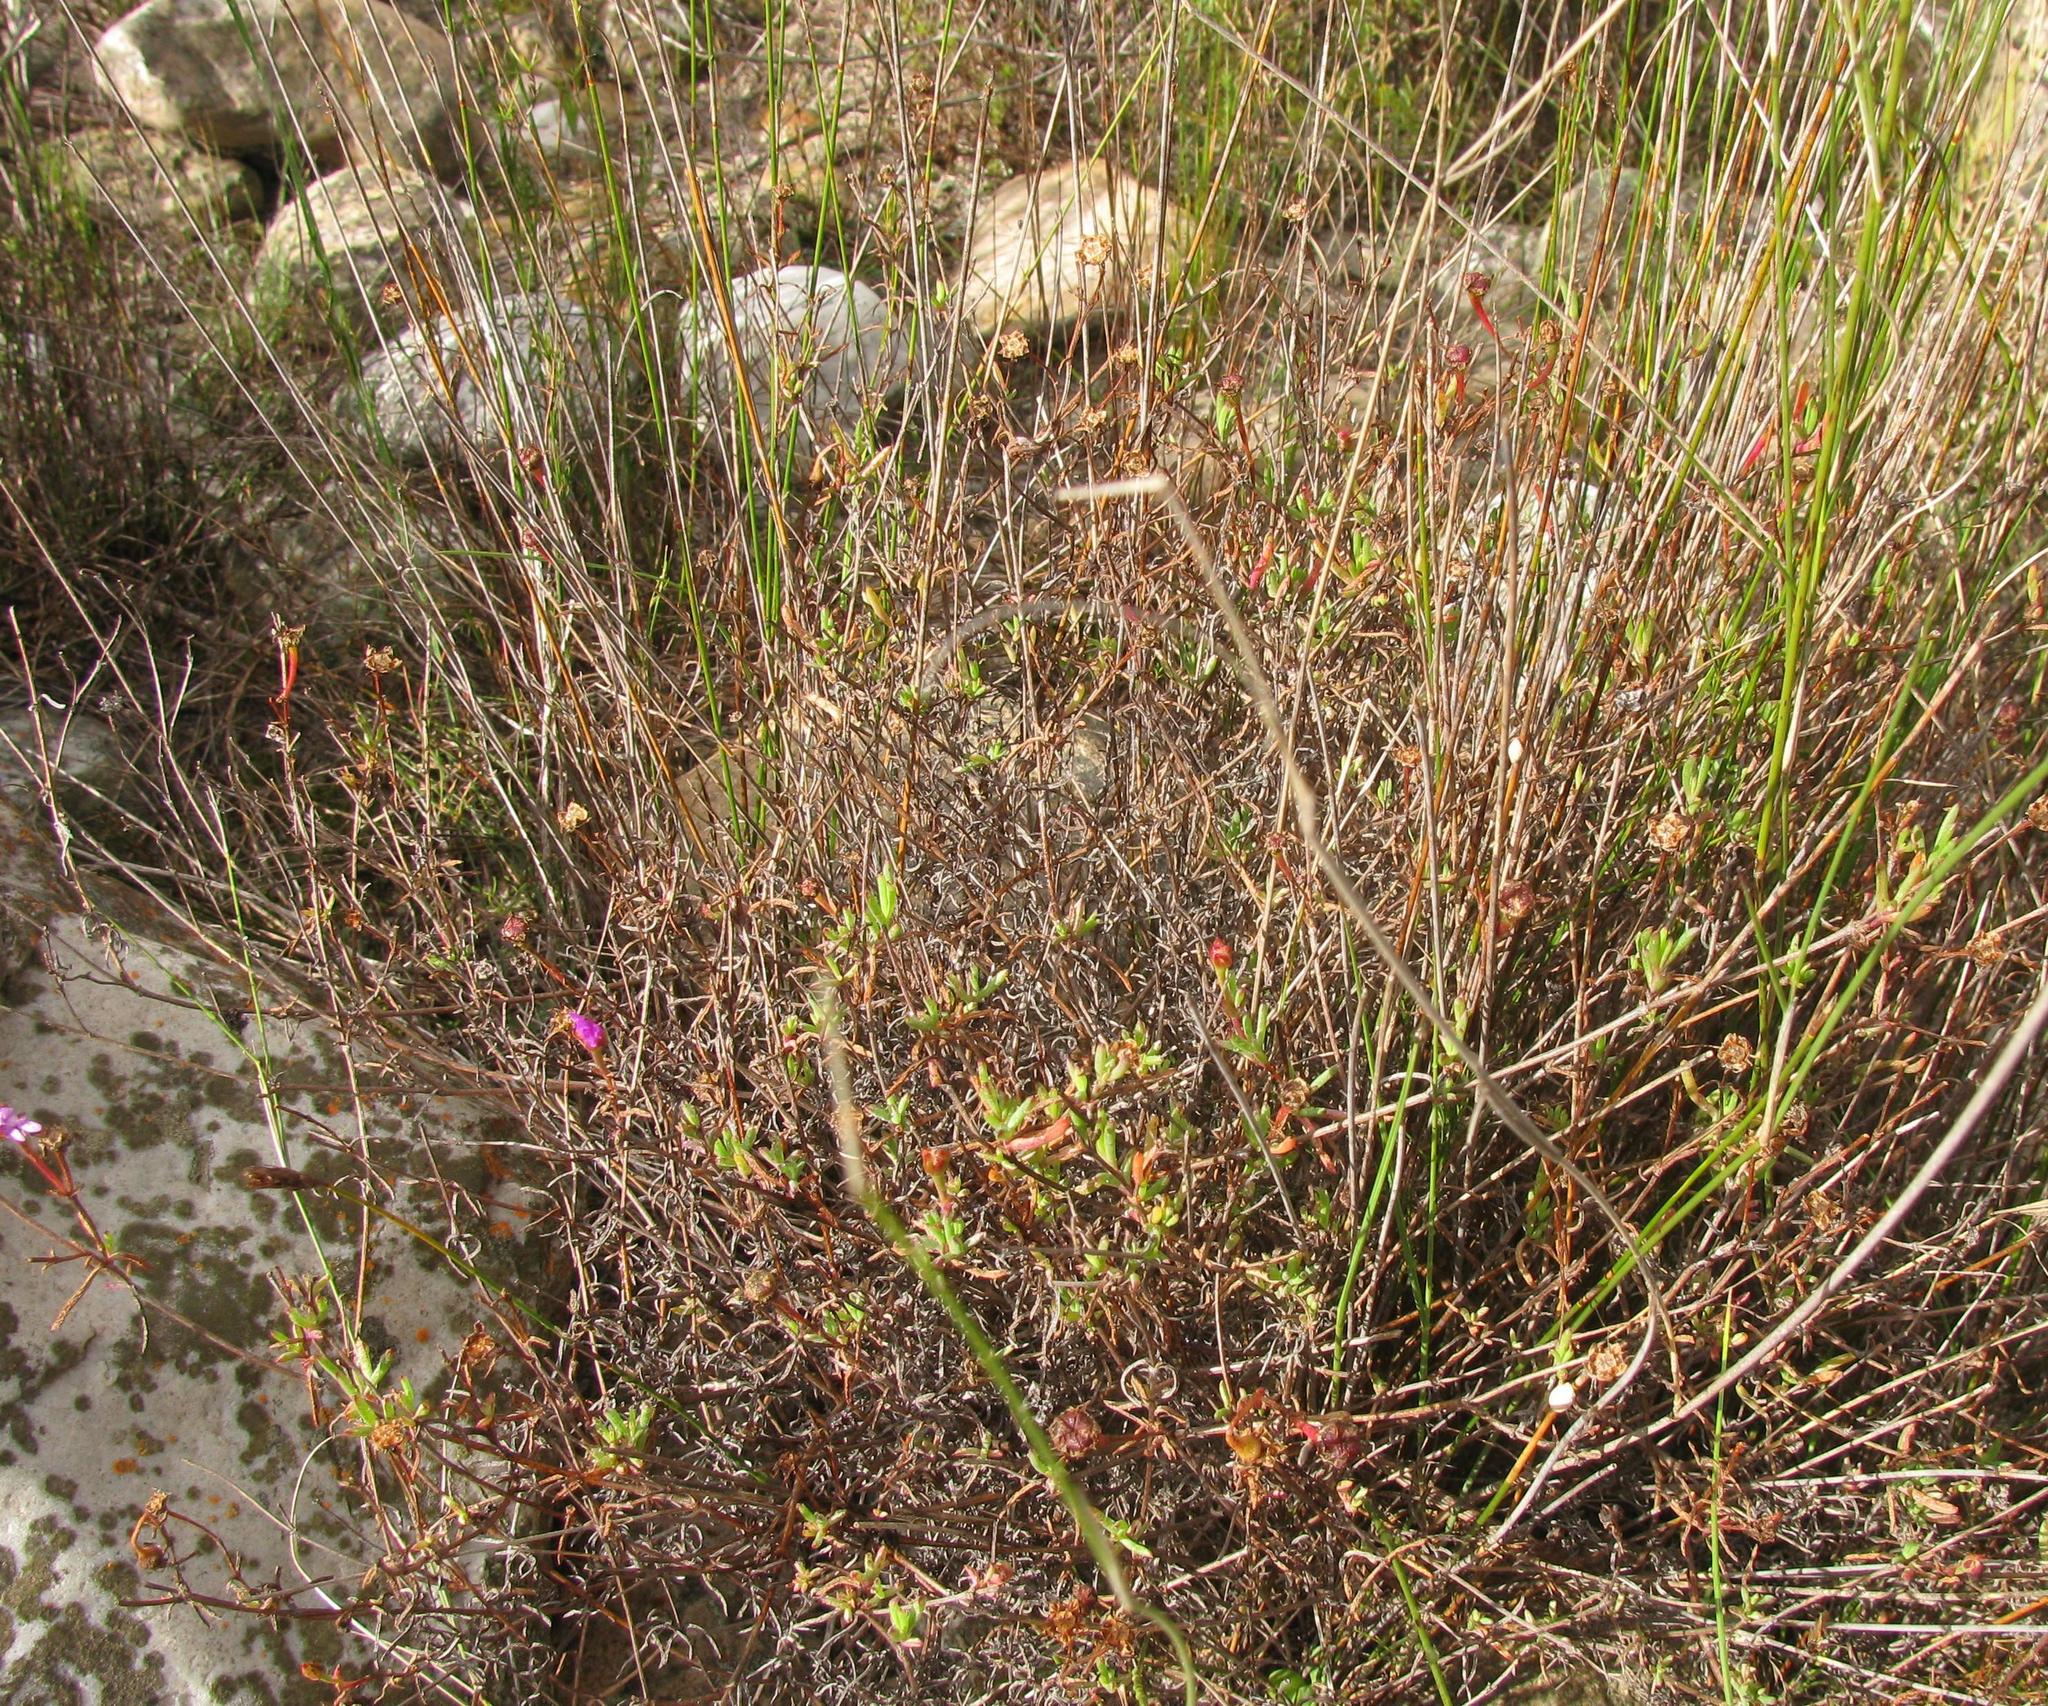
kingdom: Plantae
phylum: Tracheophyta
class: Magnoliopsida
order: Caryophyllales
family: Aizoaceae
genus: Lampranthus
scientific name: Lampranthus falcatus
